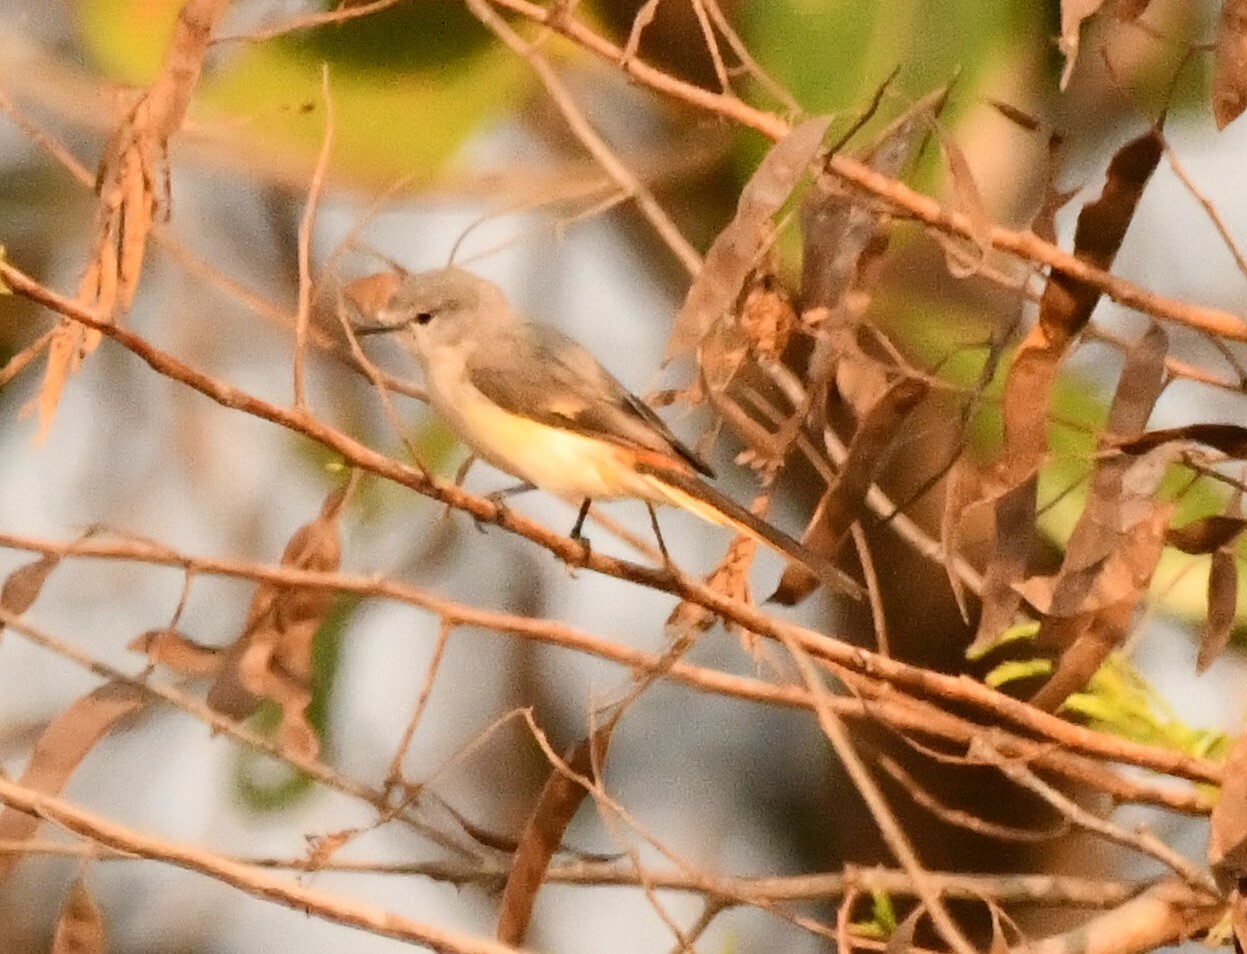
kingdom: Animalia
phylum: Chordata
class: Aves
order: Passeriformes
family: Campephagidae
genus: Pericrocotus
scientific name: Pericrocotus cinnamomeus
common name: Small minivet
